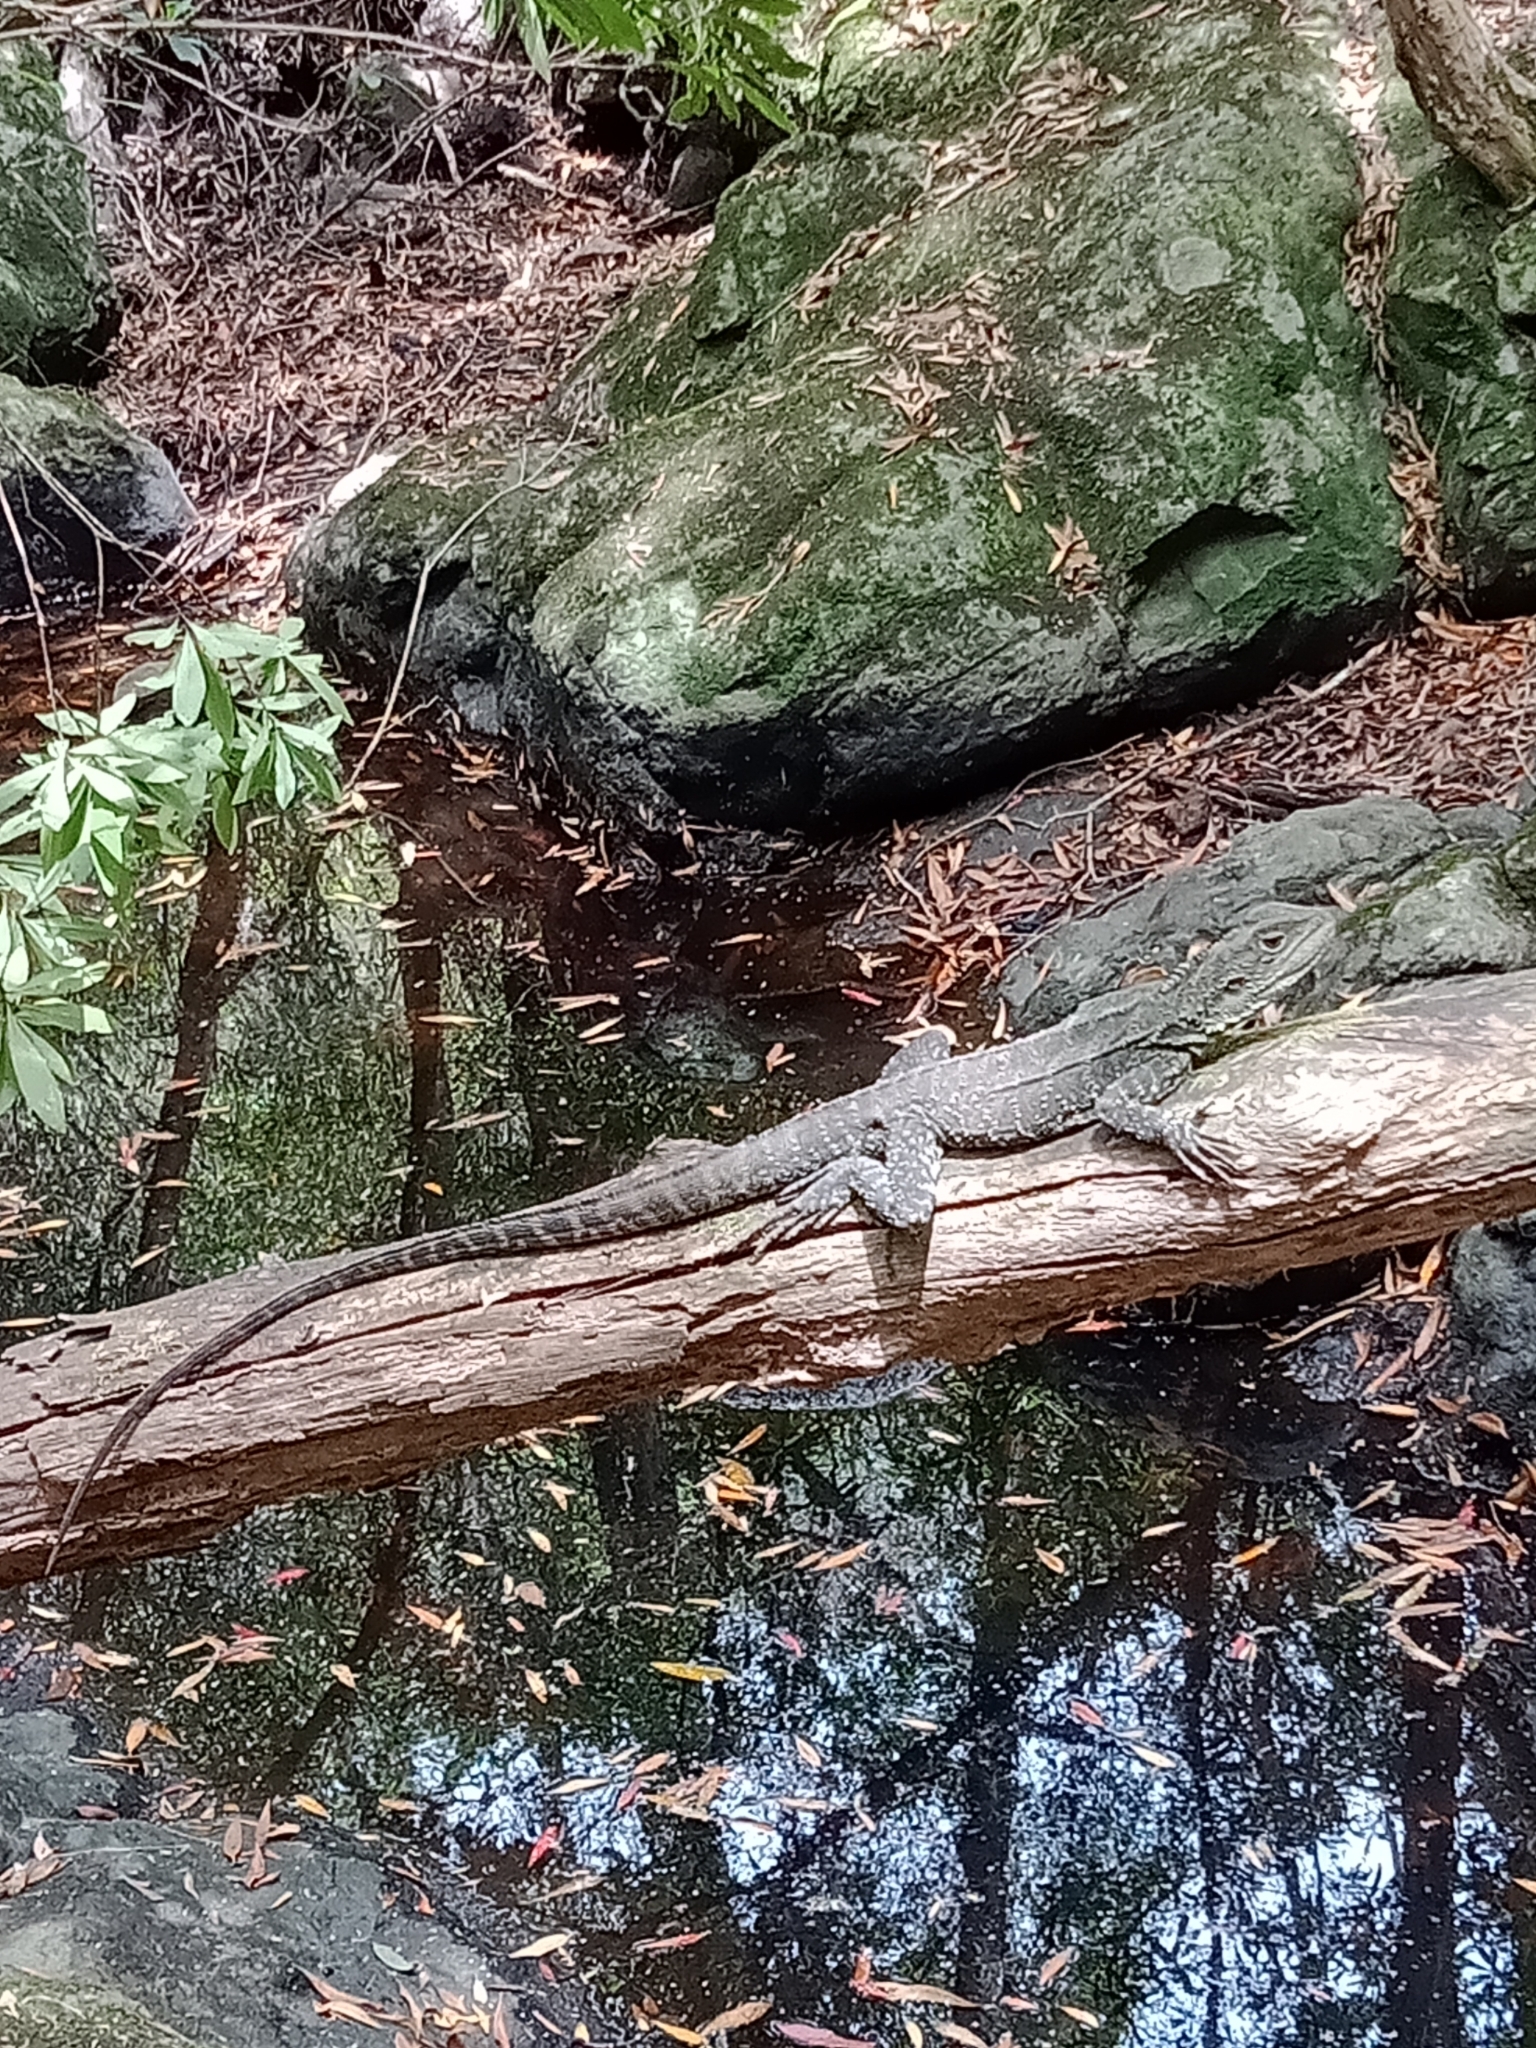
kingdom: Animalia
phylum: Chordata
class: Squamata
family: Agamidae
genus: Intellagama
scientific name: Intellagama lesueurii
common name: Eastern water dragon
